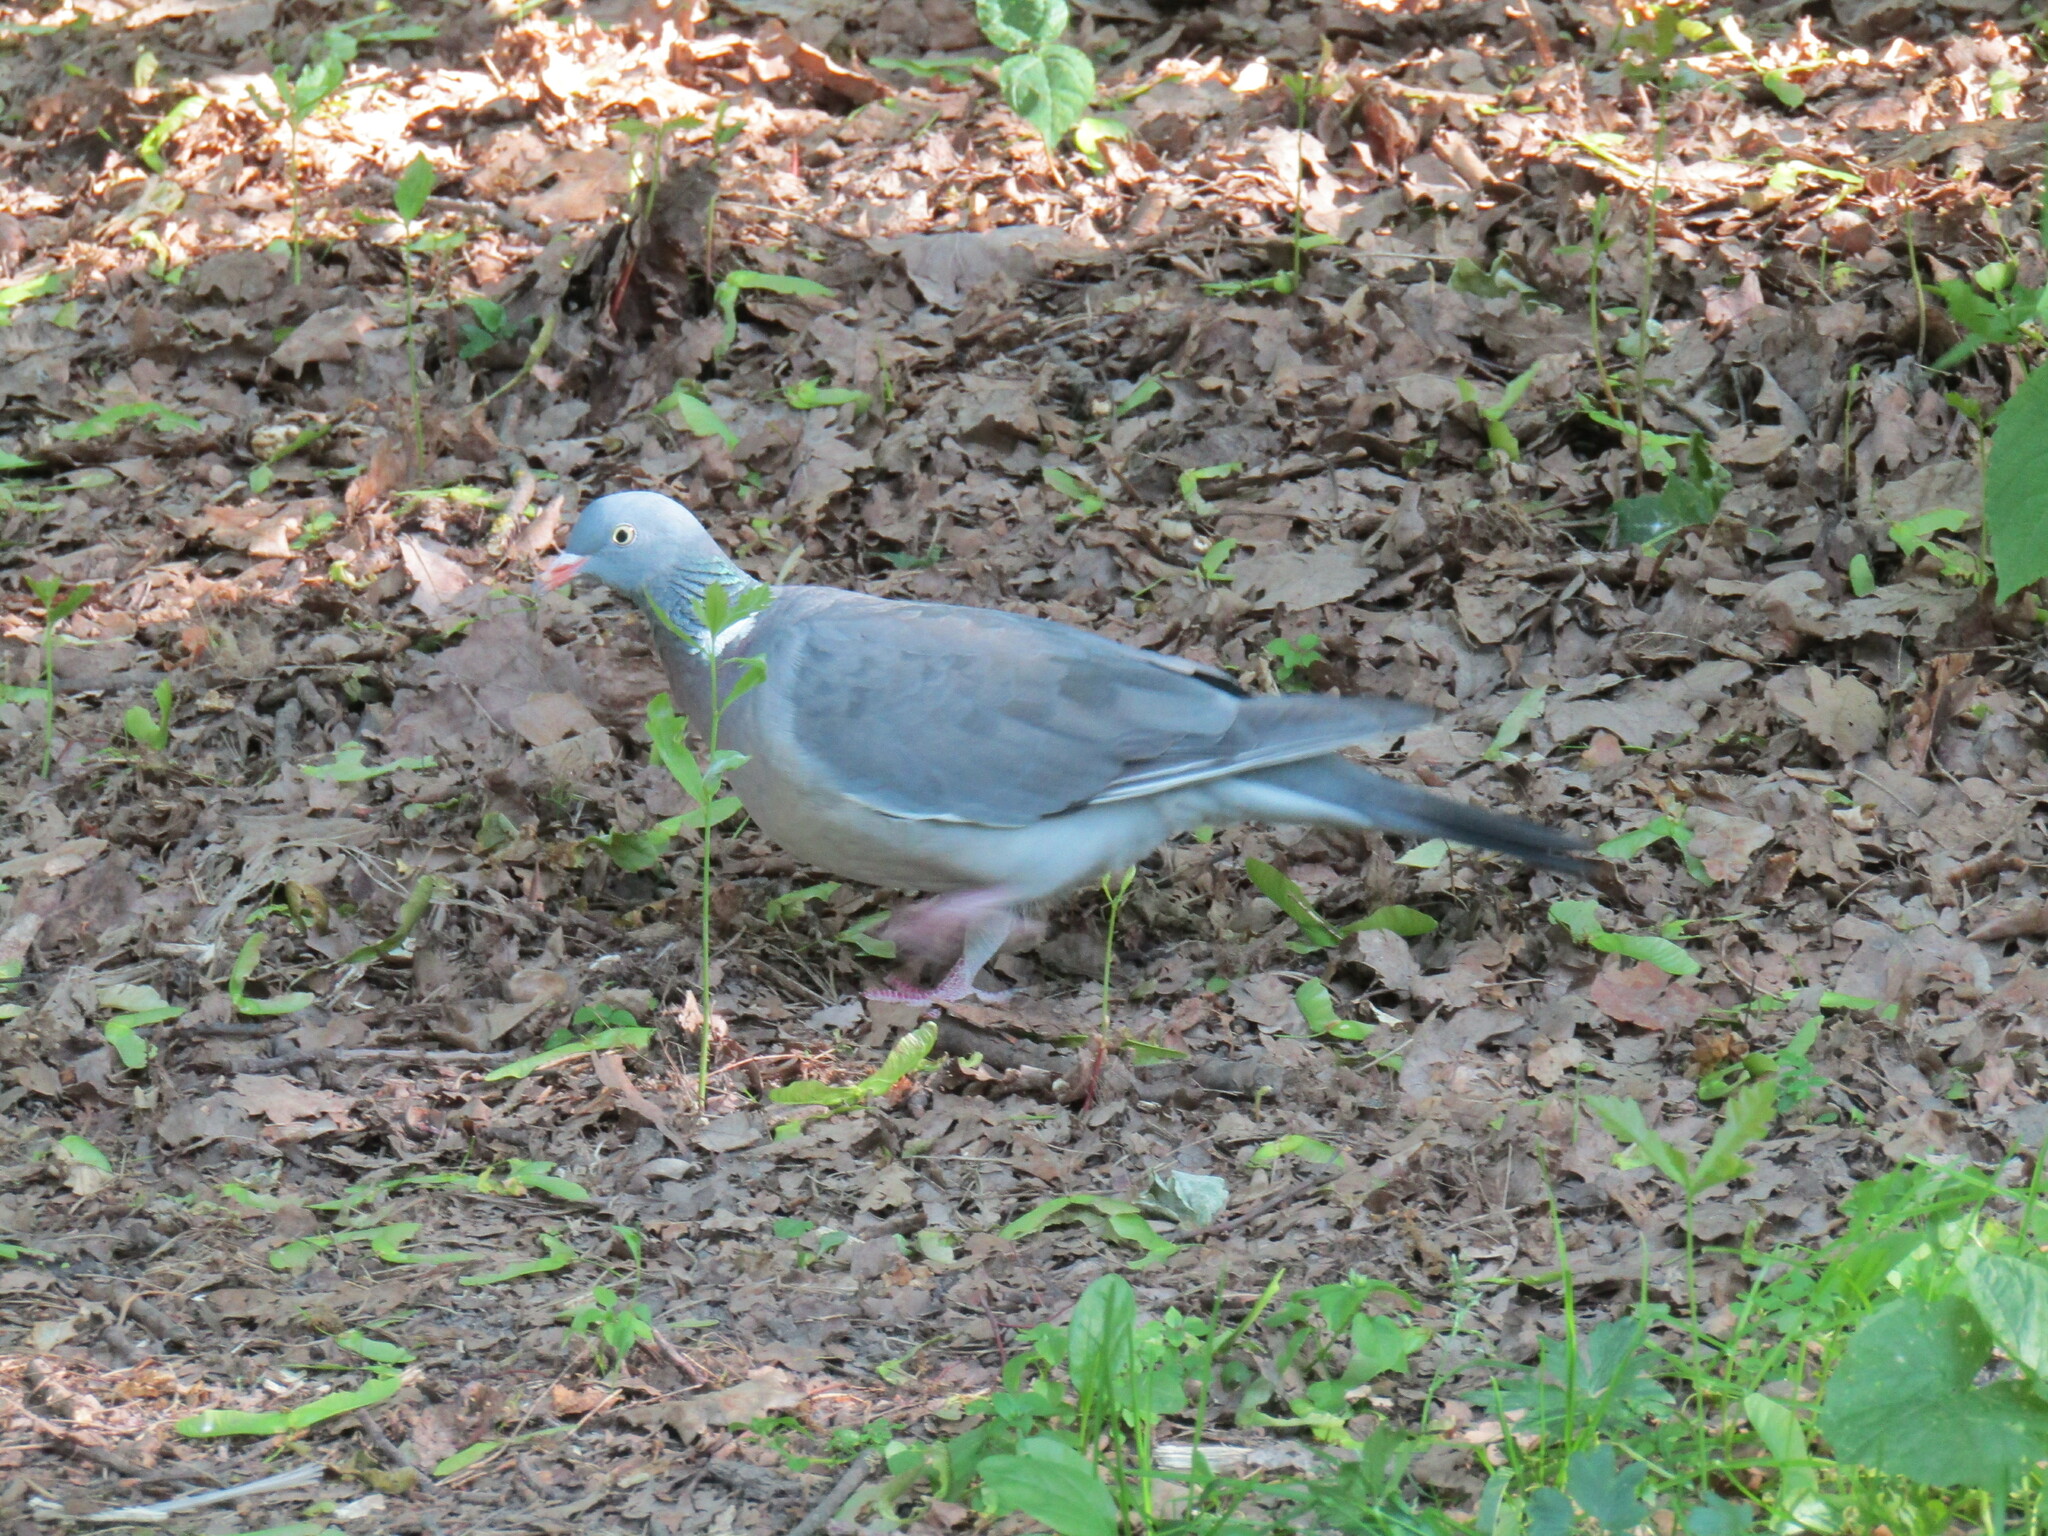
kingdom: Animalia
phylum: Chordata
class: Aves
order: Columbiformes
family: Columbidae
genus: Columba
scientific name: Columba palumbus
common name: Common wood pigeon
